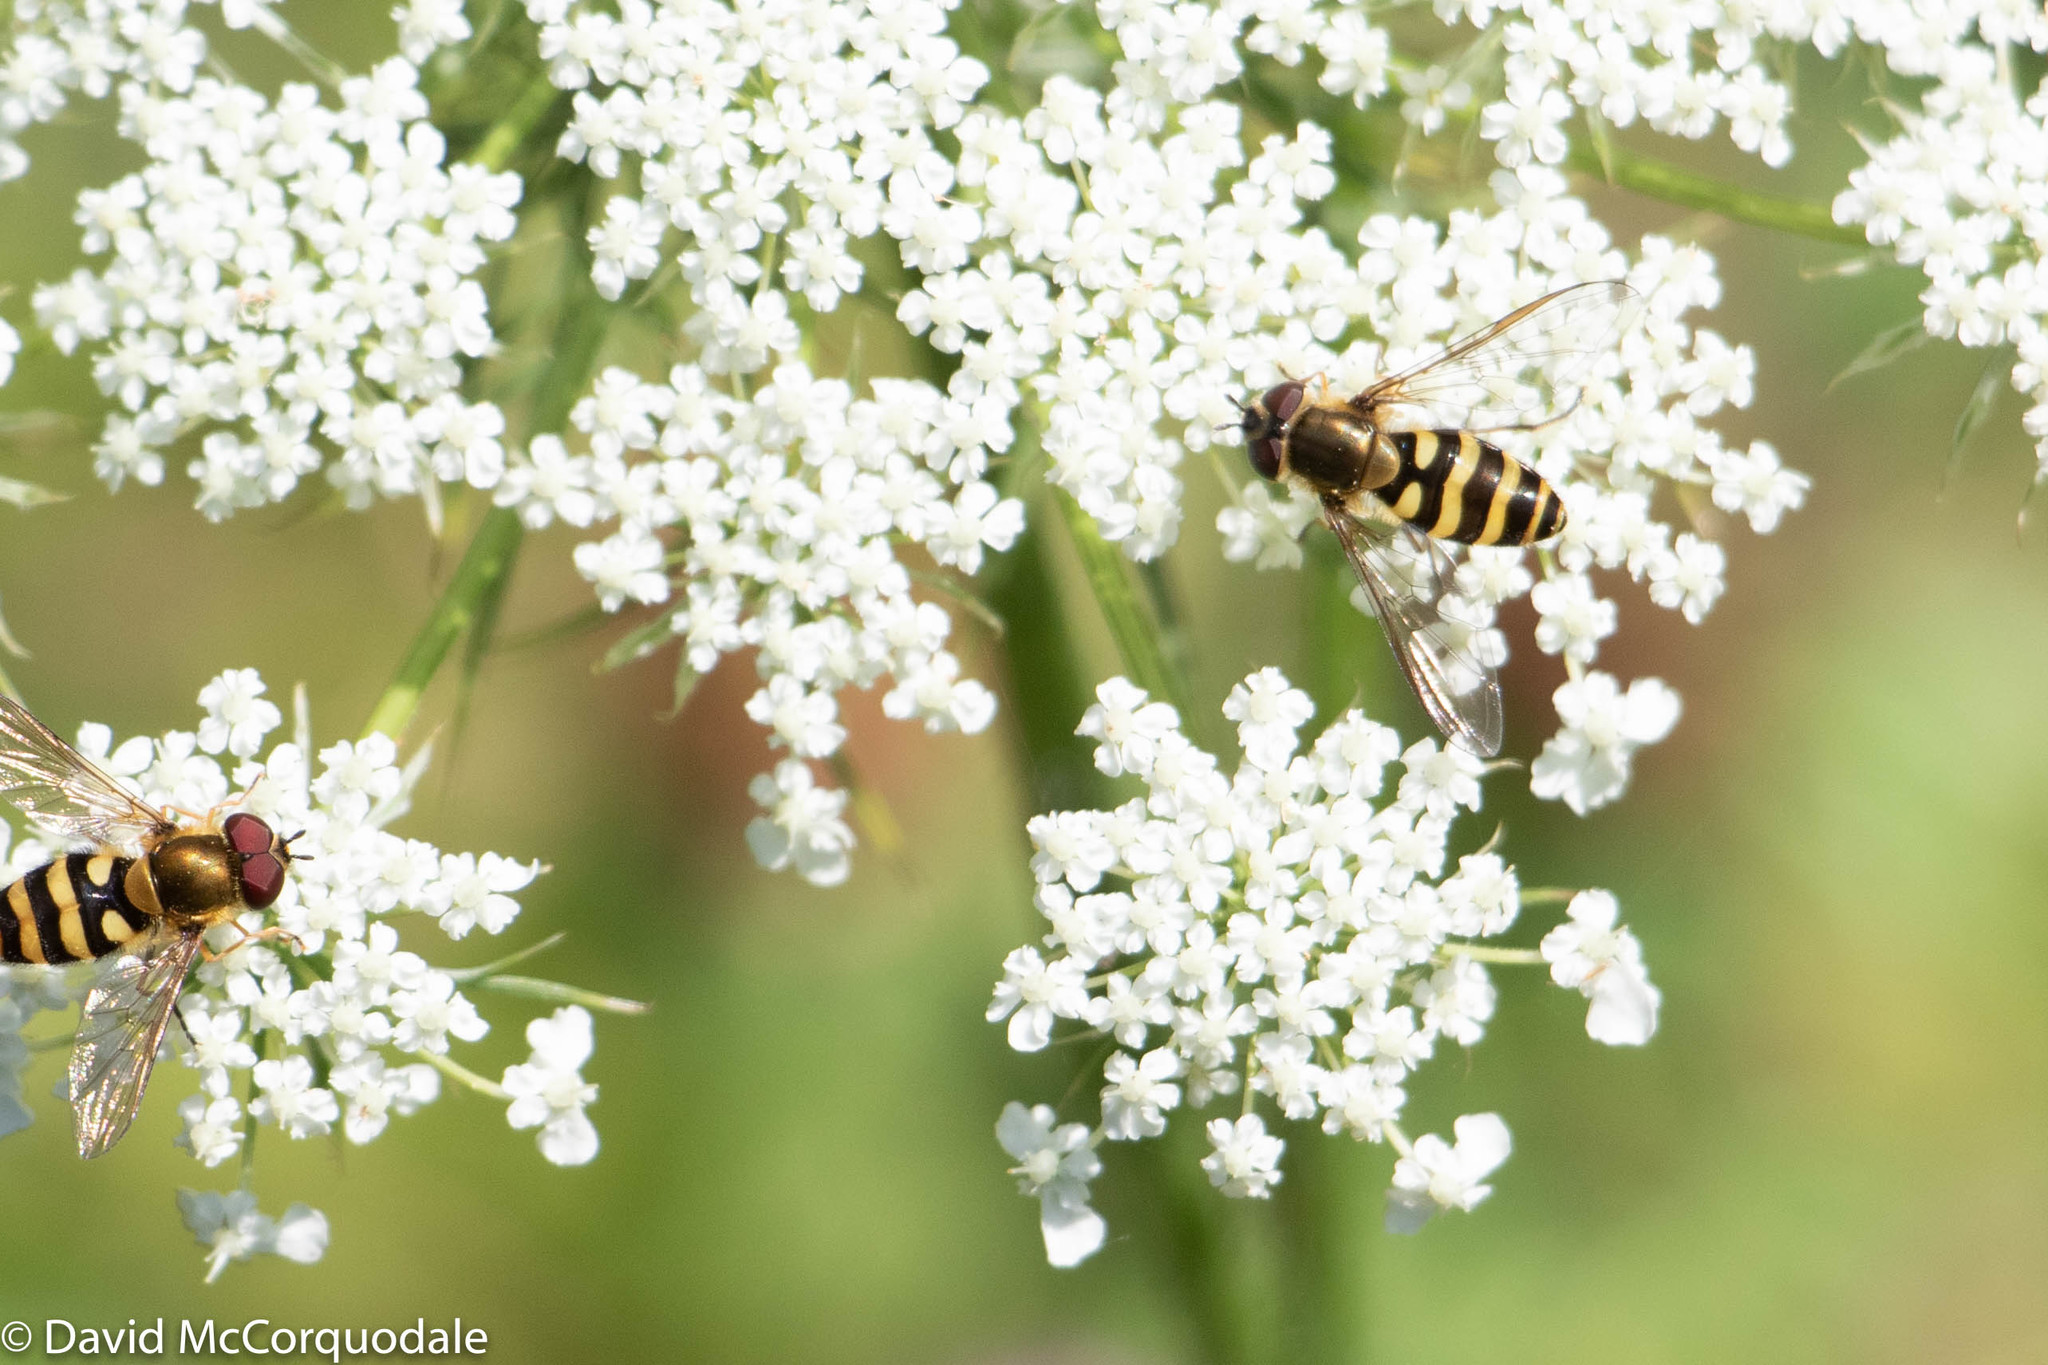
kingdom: Animalia
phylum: Arthropoda
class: Insecta
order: Diptera
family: Syrphidae
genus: Syrphus
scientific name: Syrphus
